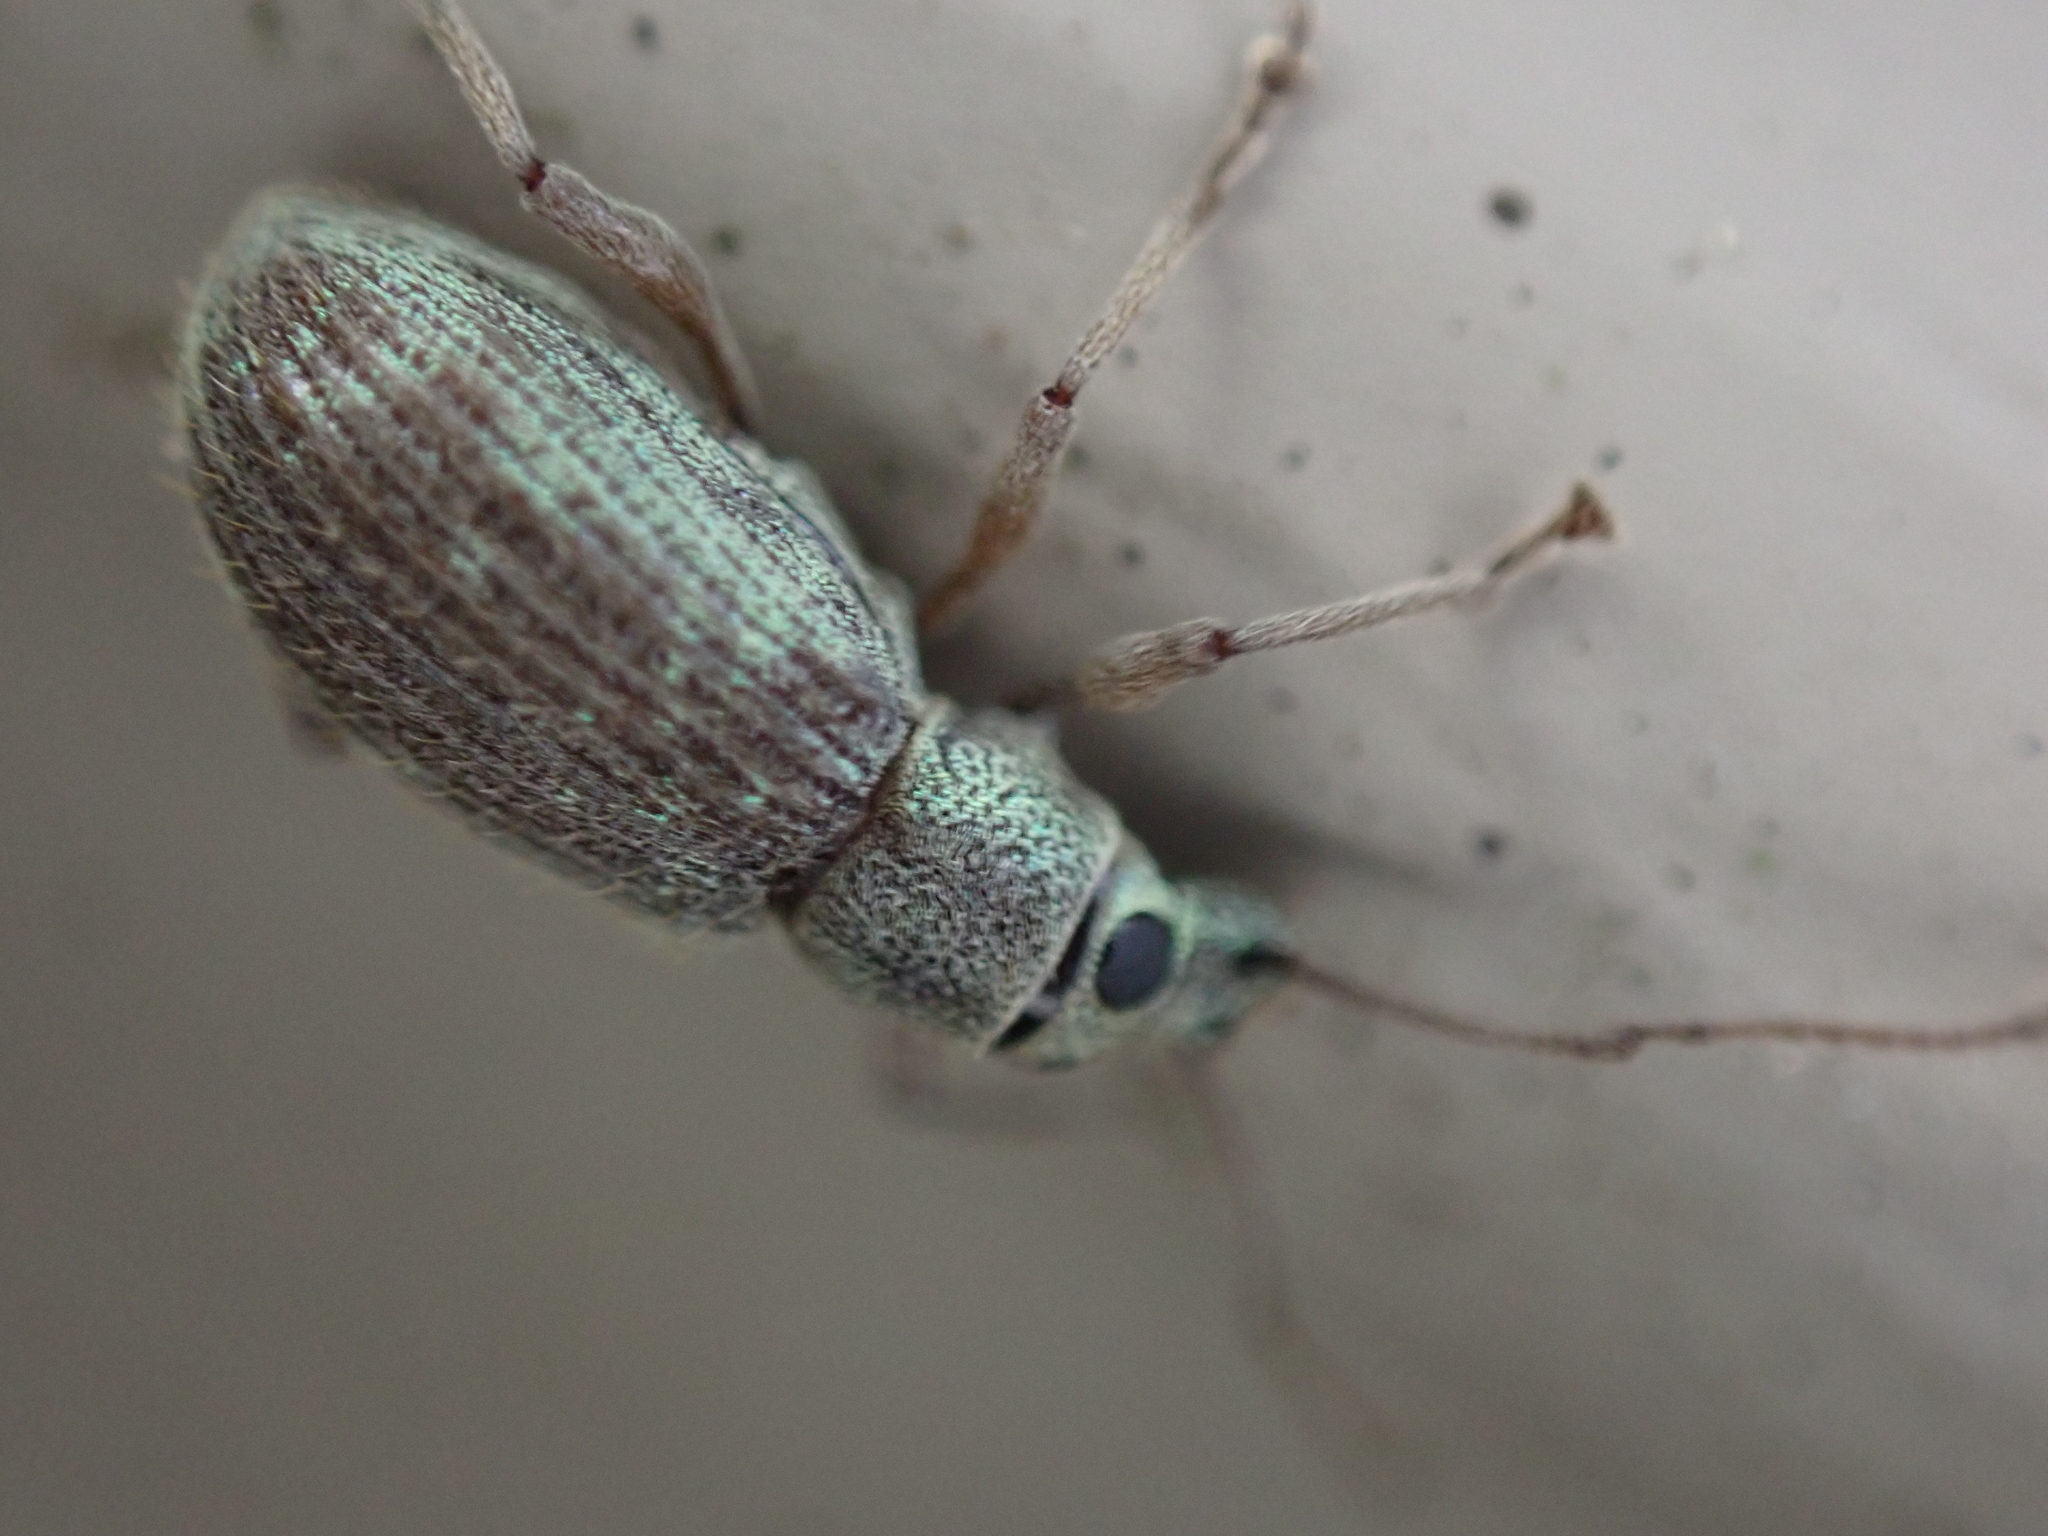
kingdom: Animalia
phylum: Arthropoda
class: Insecta
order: Coleoptera
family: Curculionidae
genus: Cyrtepistomus
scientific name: Cyrtepistomus castaneus
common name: Weevil
